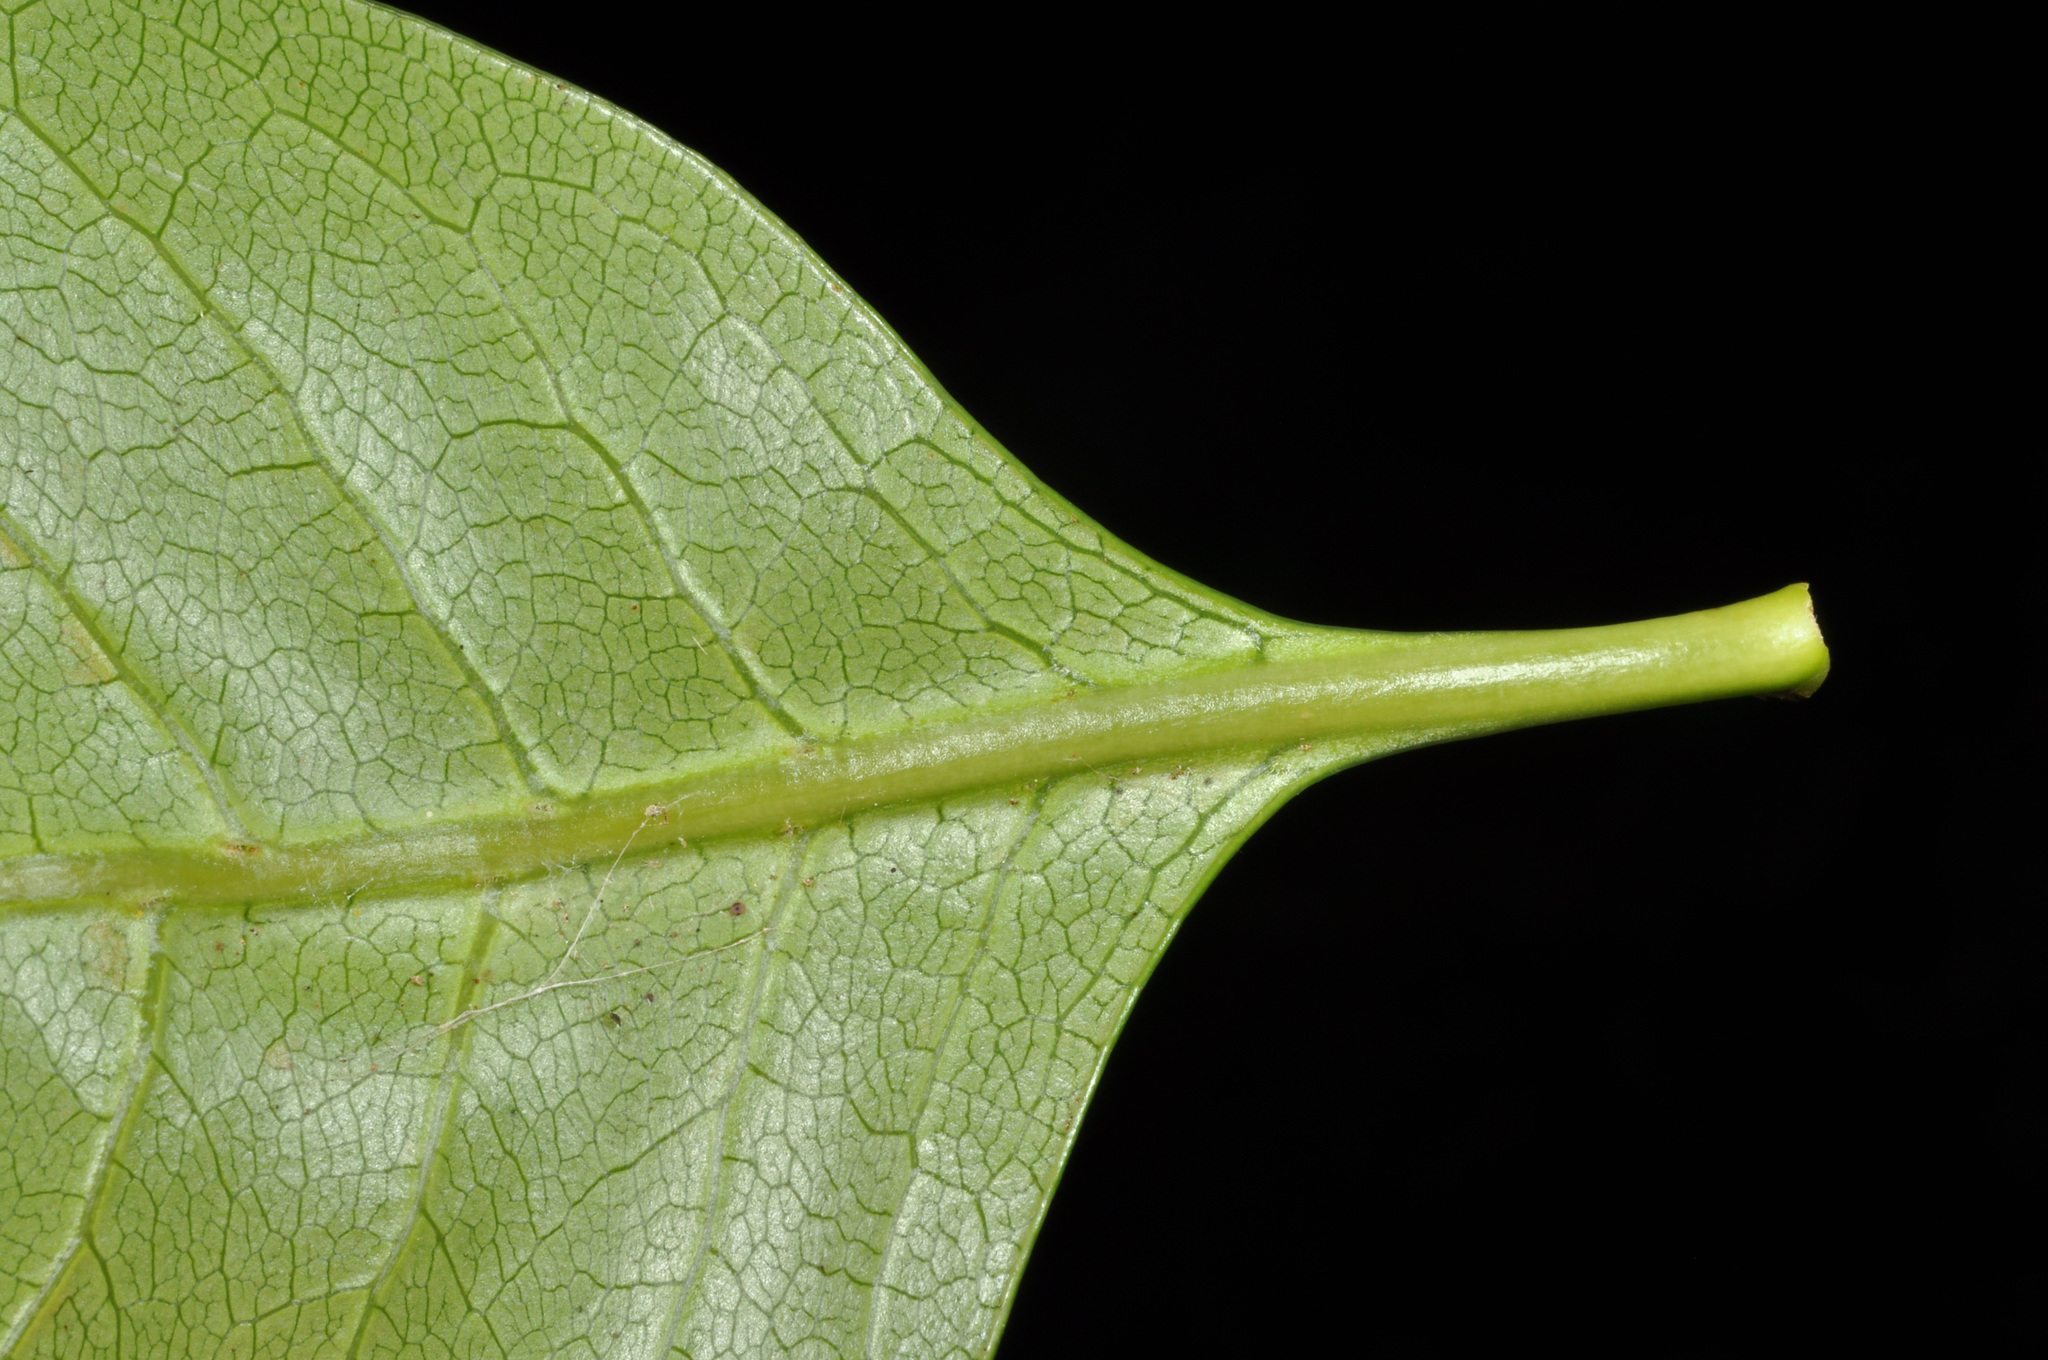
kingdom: Plantae
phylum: Tracheophyta
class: Magnoliopsida
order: Gentianales
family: Rubiaceae
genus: Coprosma
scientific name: Coprosma macrocarpa
